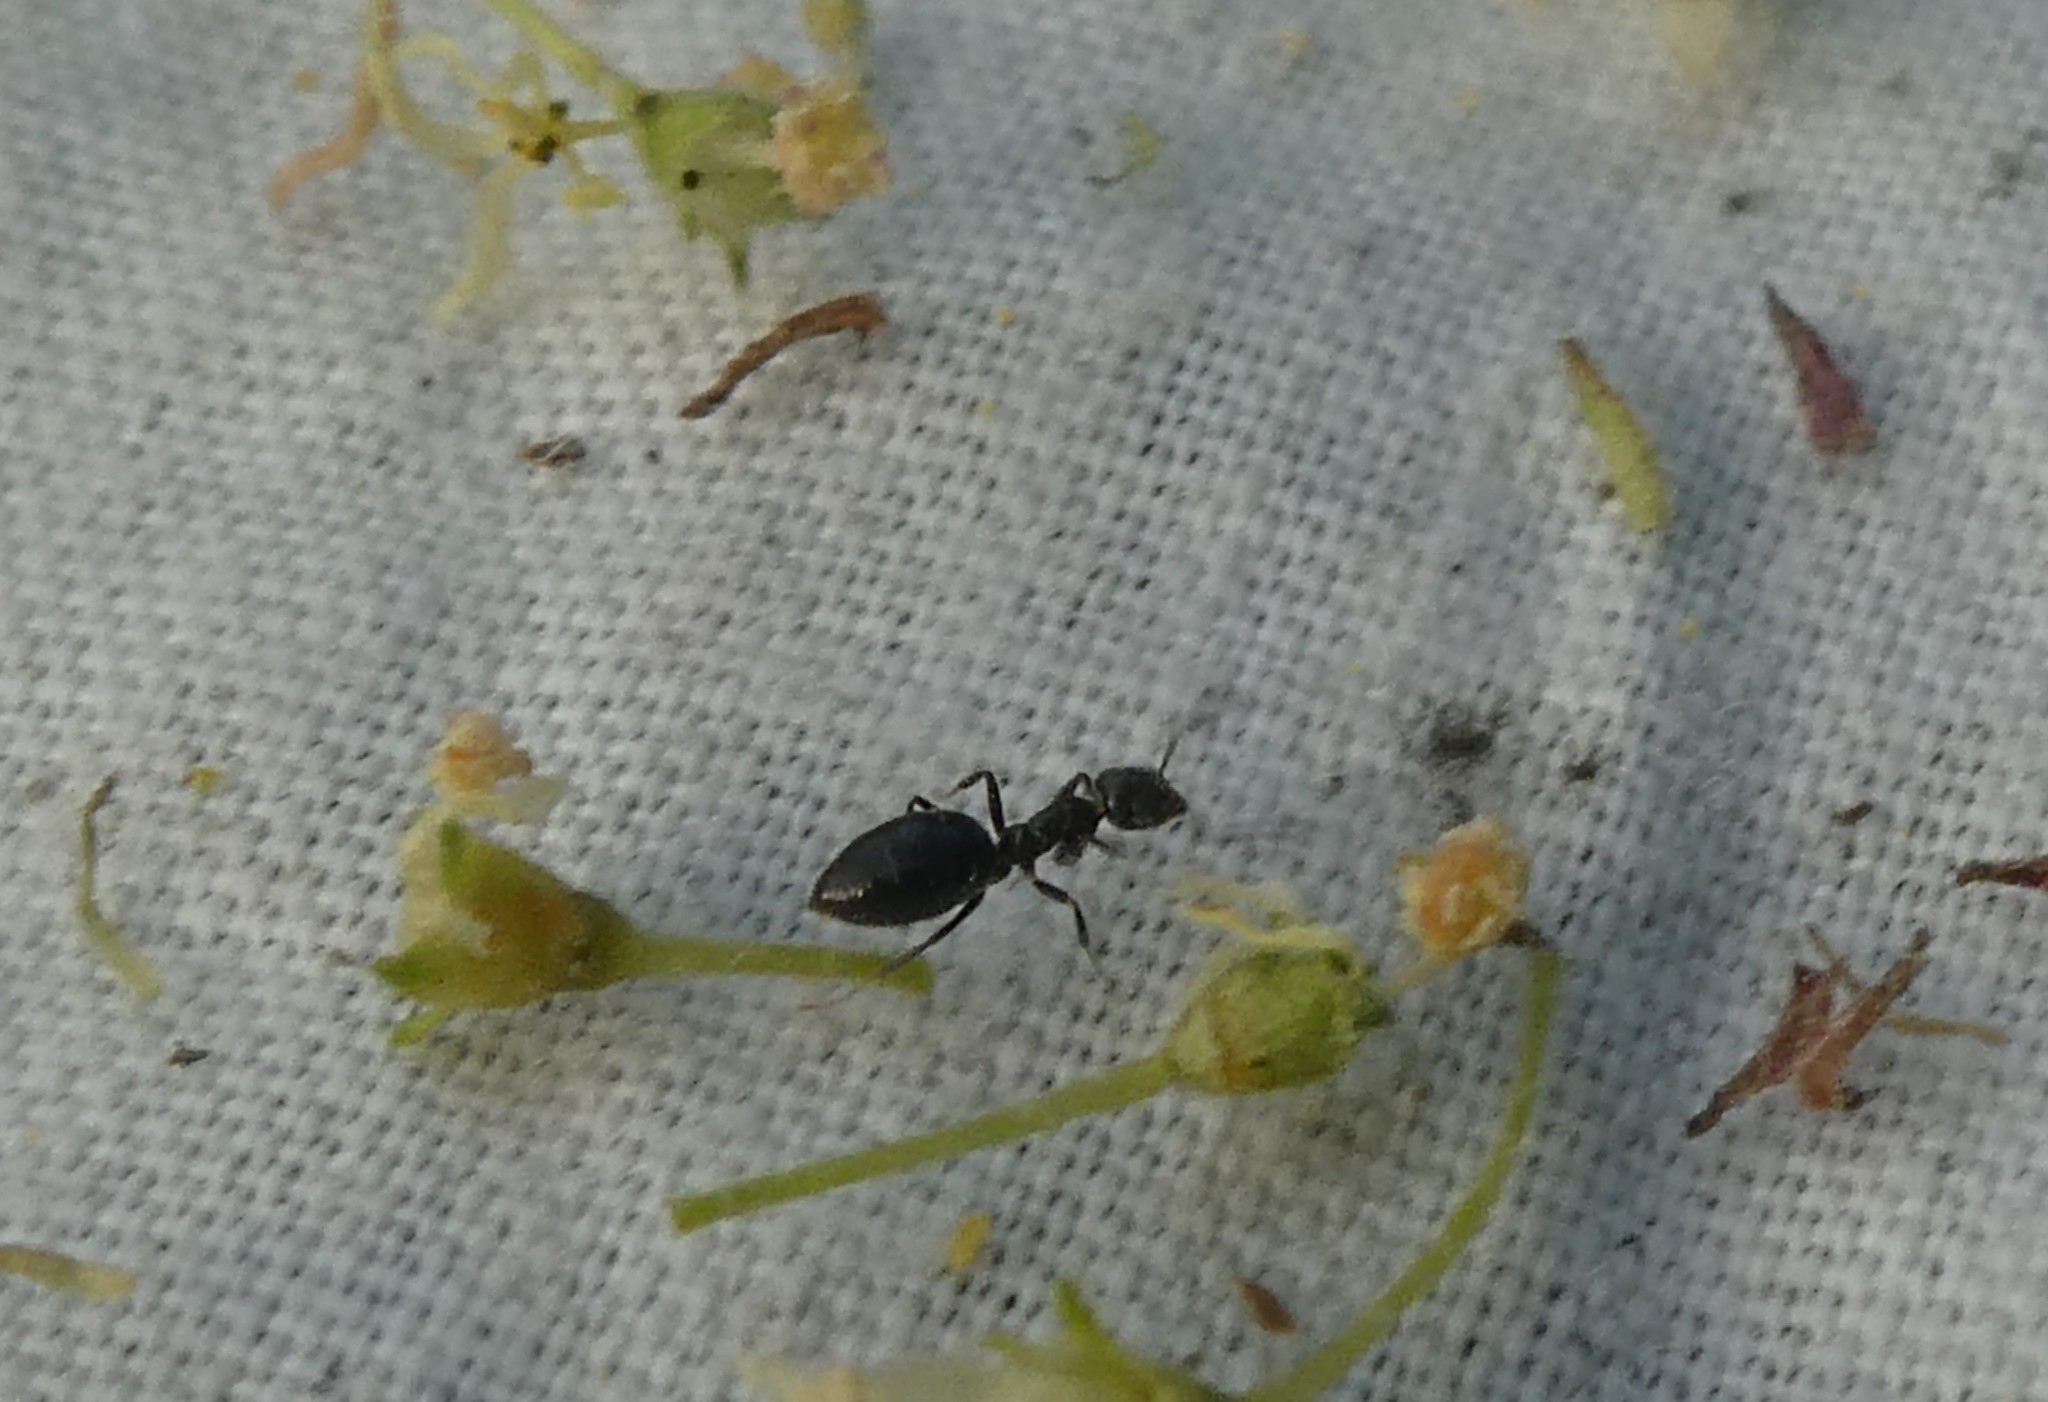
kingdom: Animalia
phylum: Arthropoda
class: Insecta
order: Hymenoptera
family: Formicidae
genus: Technomyrmex
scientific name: Technomyrmex jocosus
